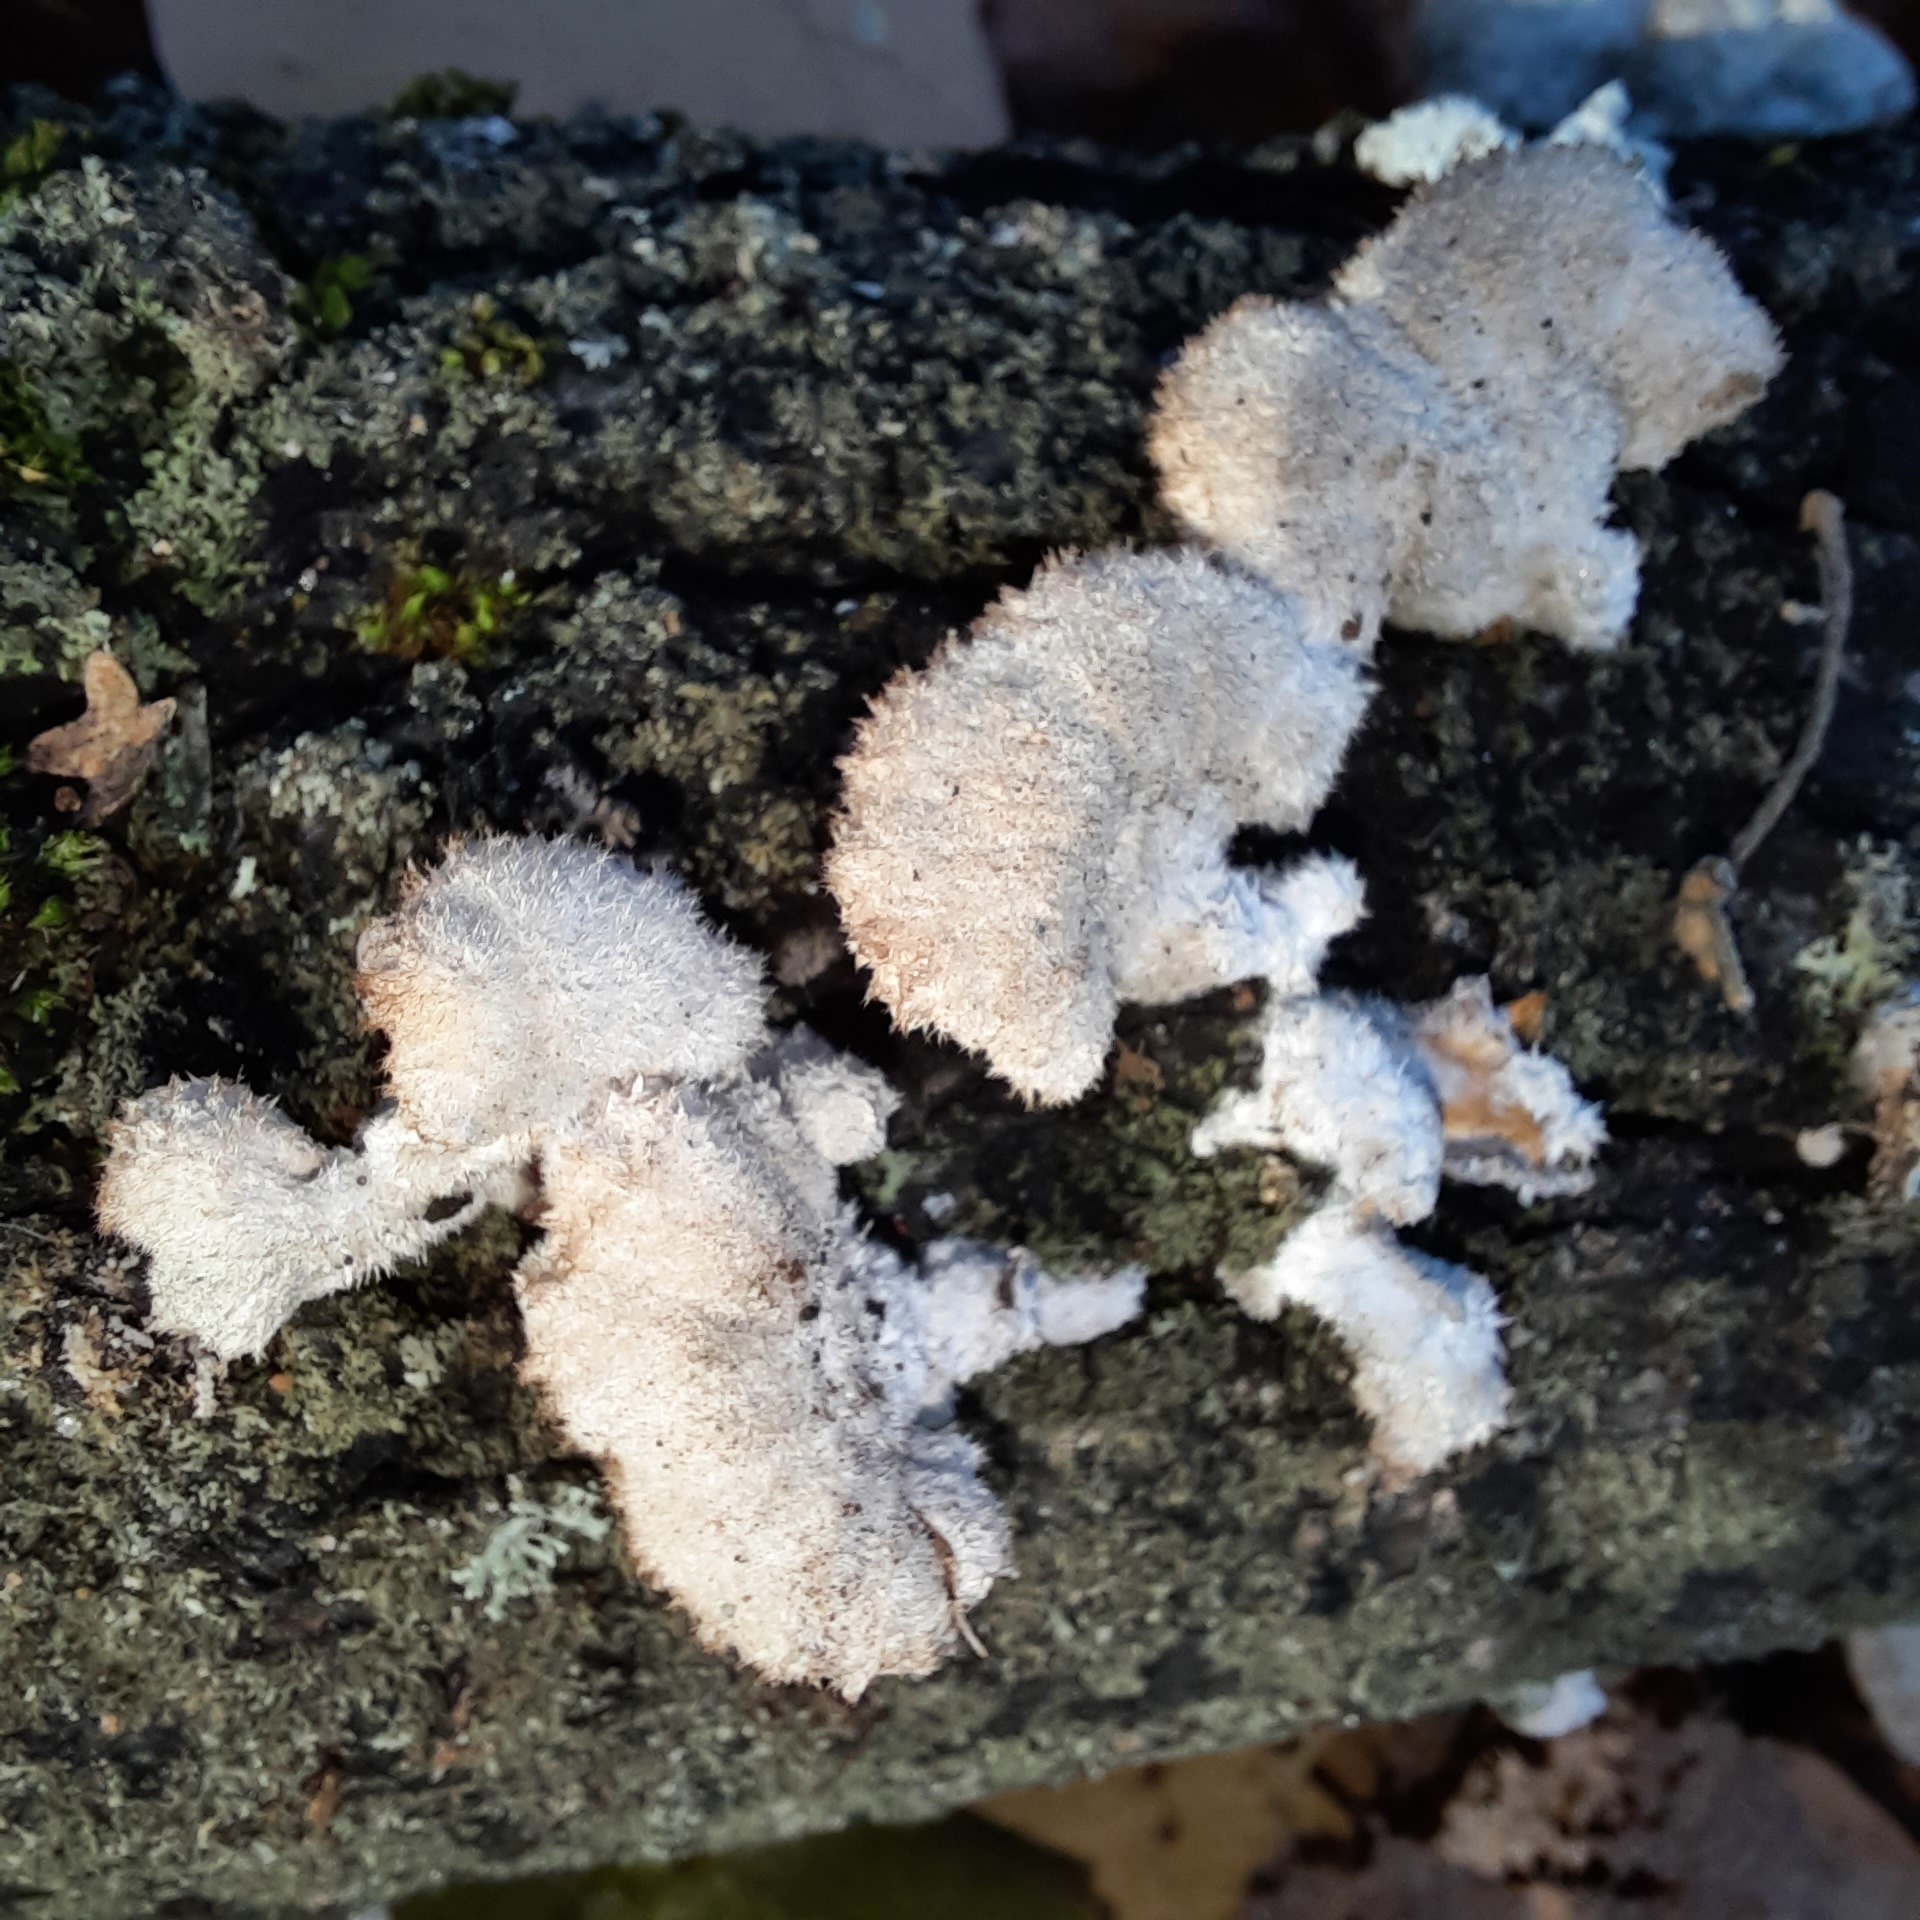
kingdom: Fungi
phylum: Basidiomycota
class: Agaricomycetes
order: Agaricales
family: Schizophyllaceae
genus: Schizophyllum
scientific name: Schizophyllum commune
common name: Common porecrust
